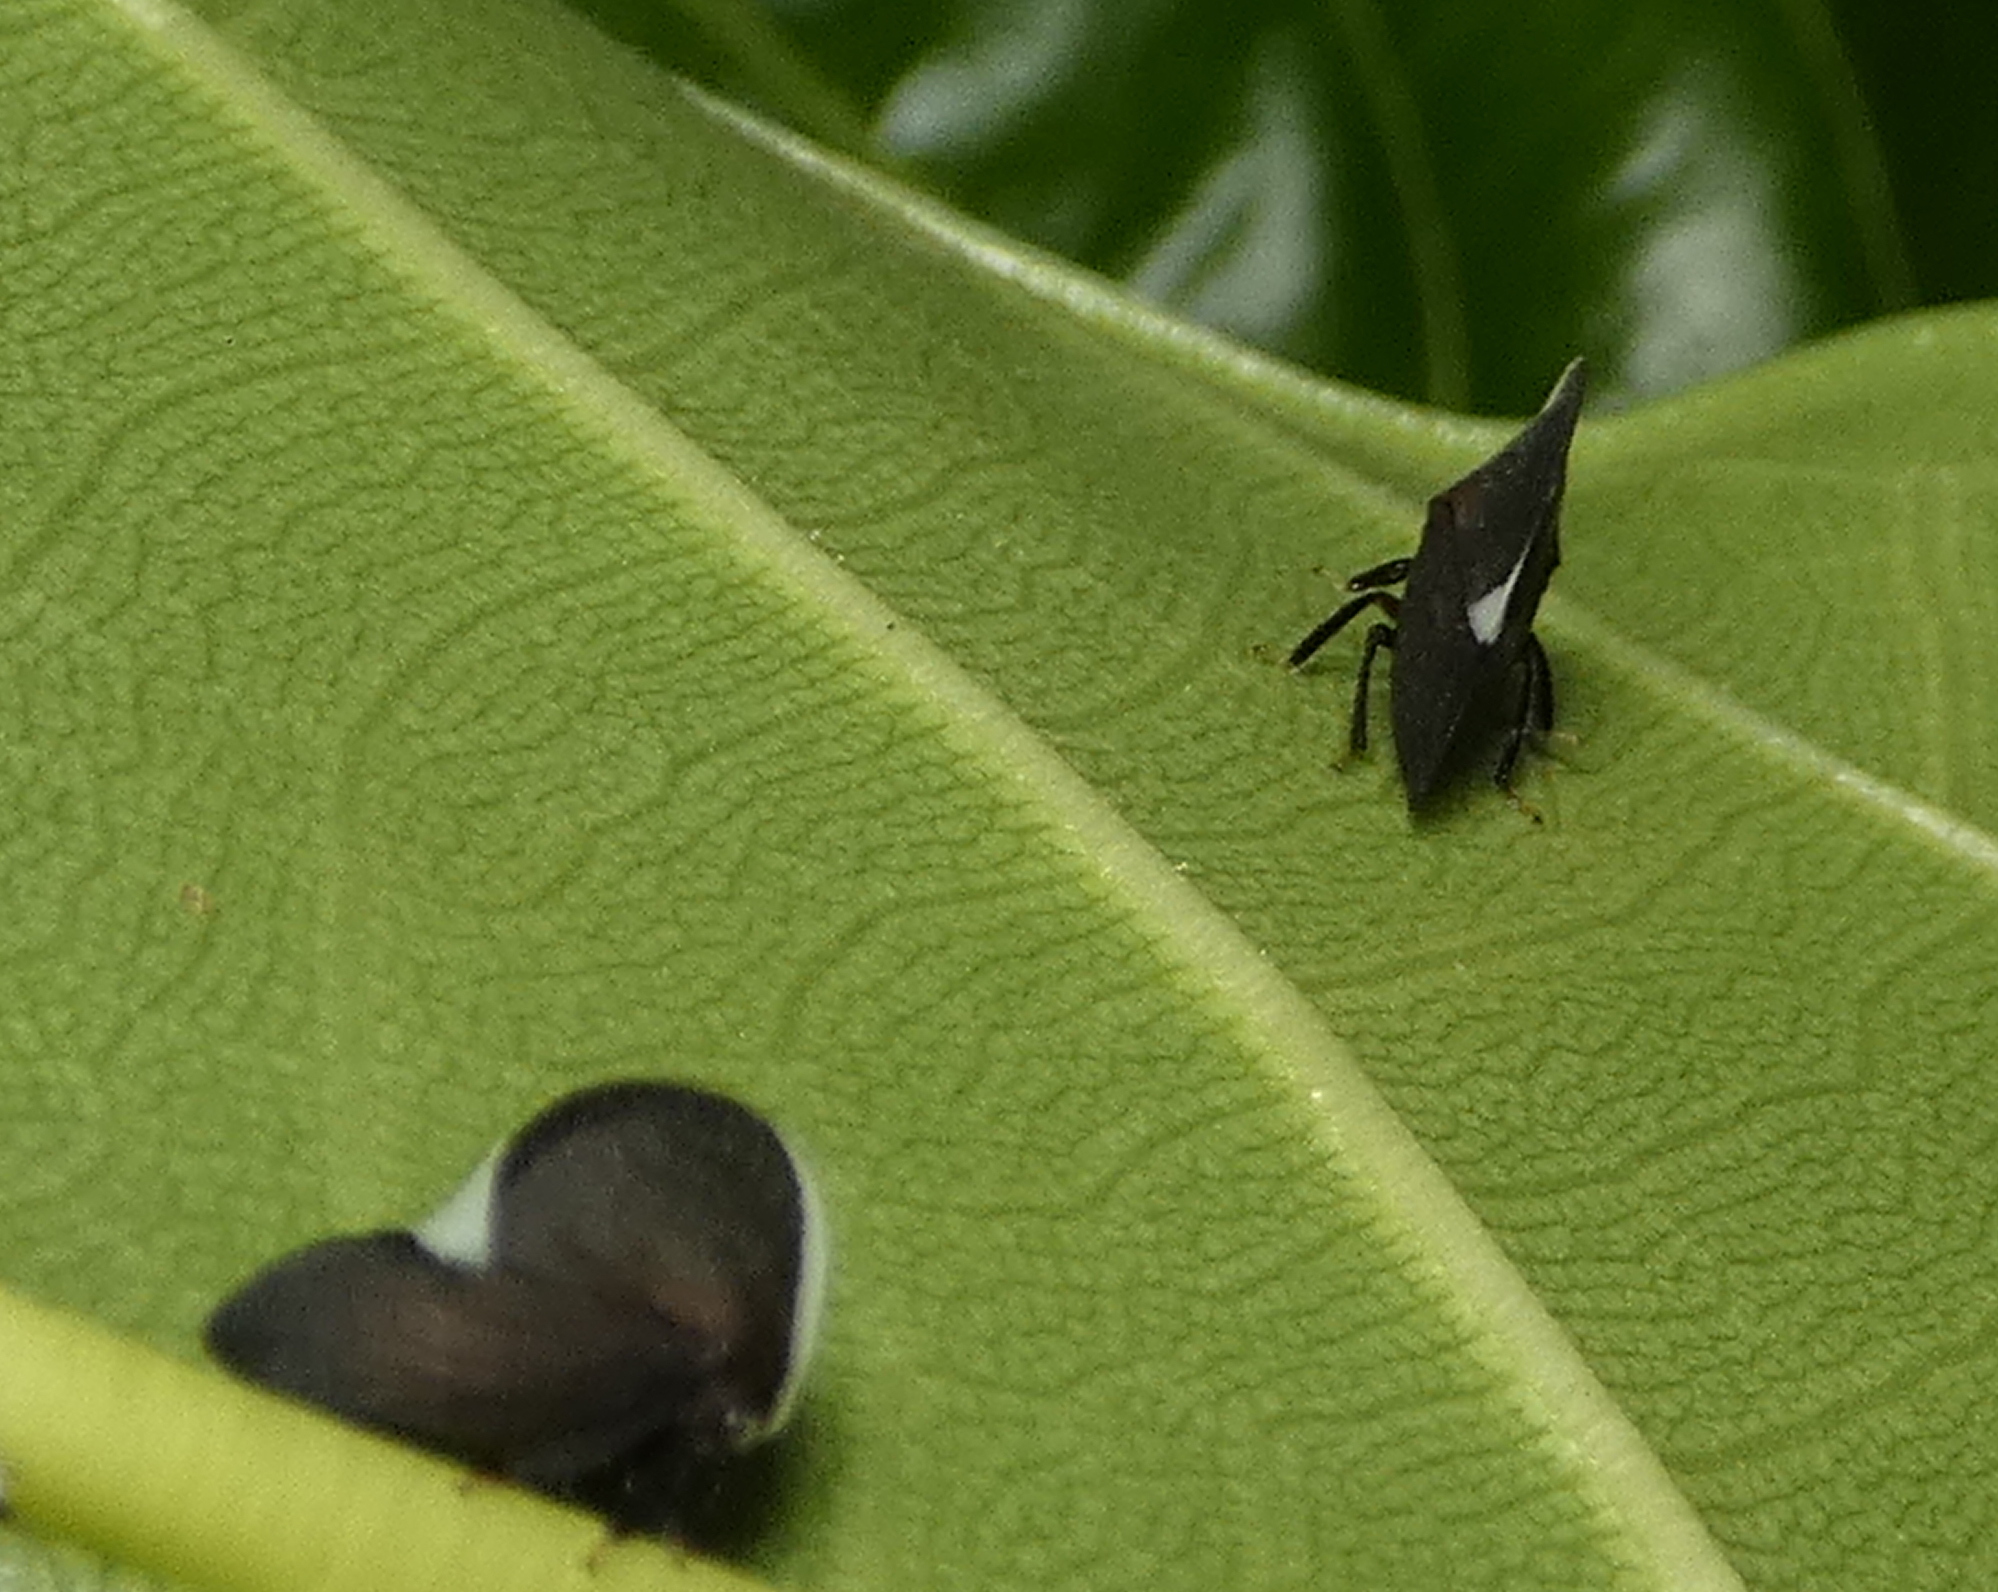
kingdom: Animalia
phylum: Arthropoda
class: Insecta
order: Hemiptera
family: Membracidae
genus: Membracis
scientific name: Membracis dorsata
